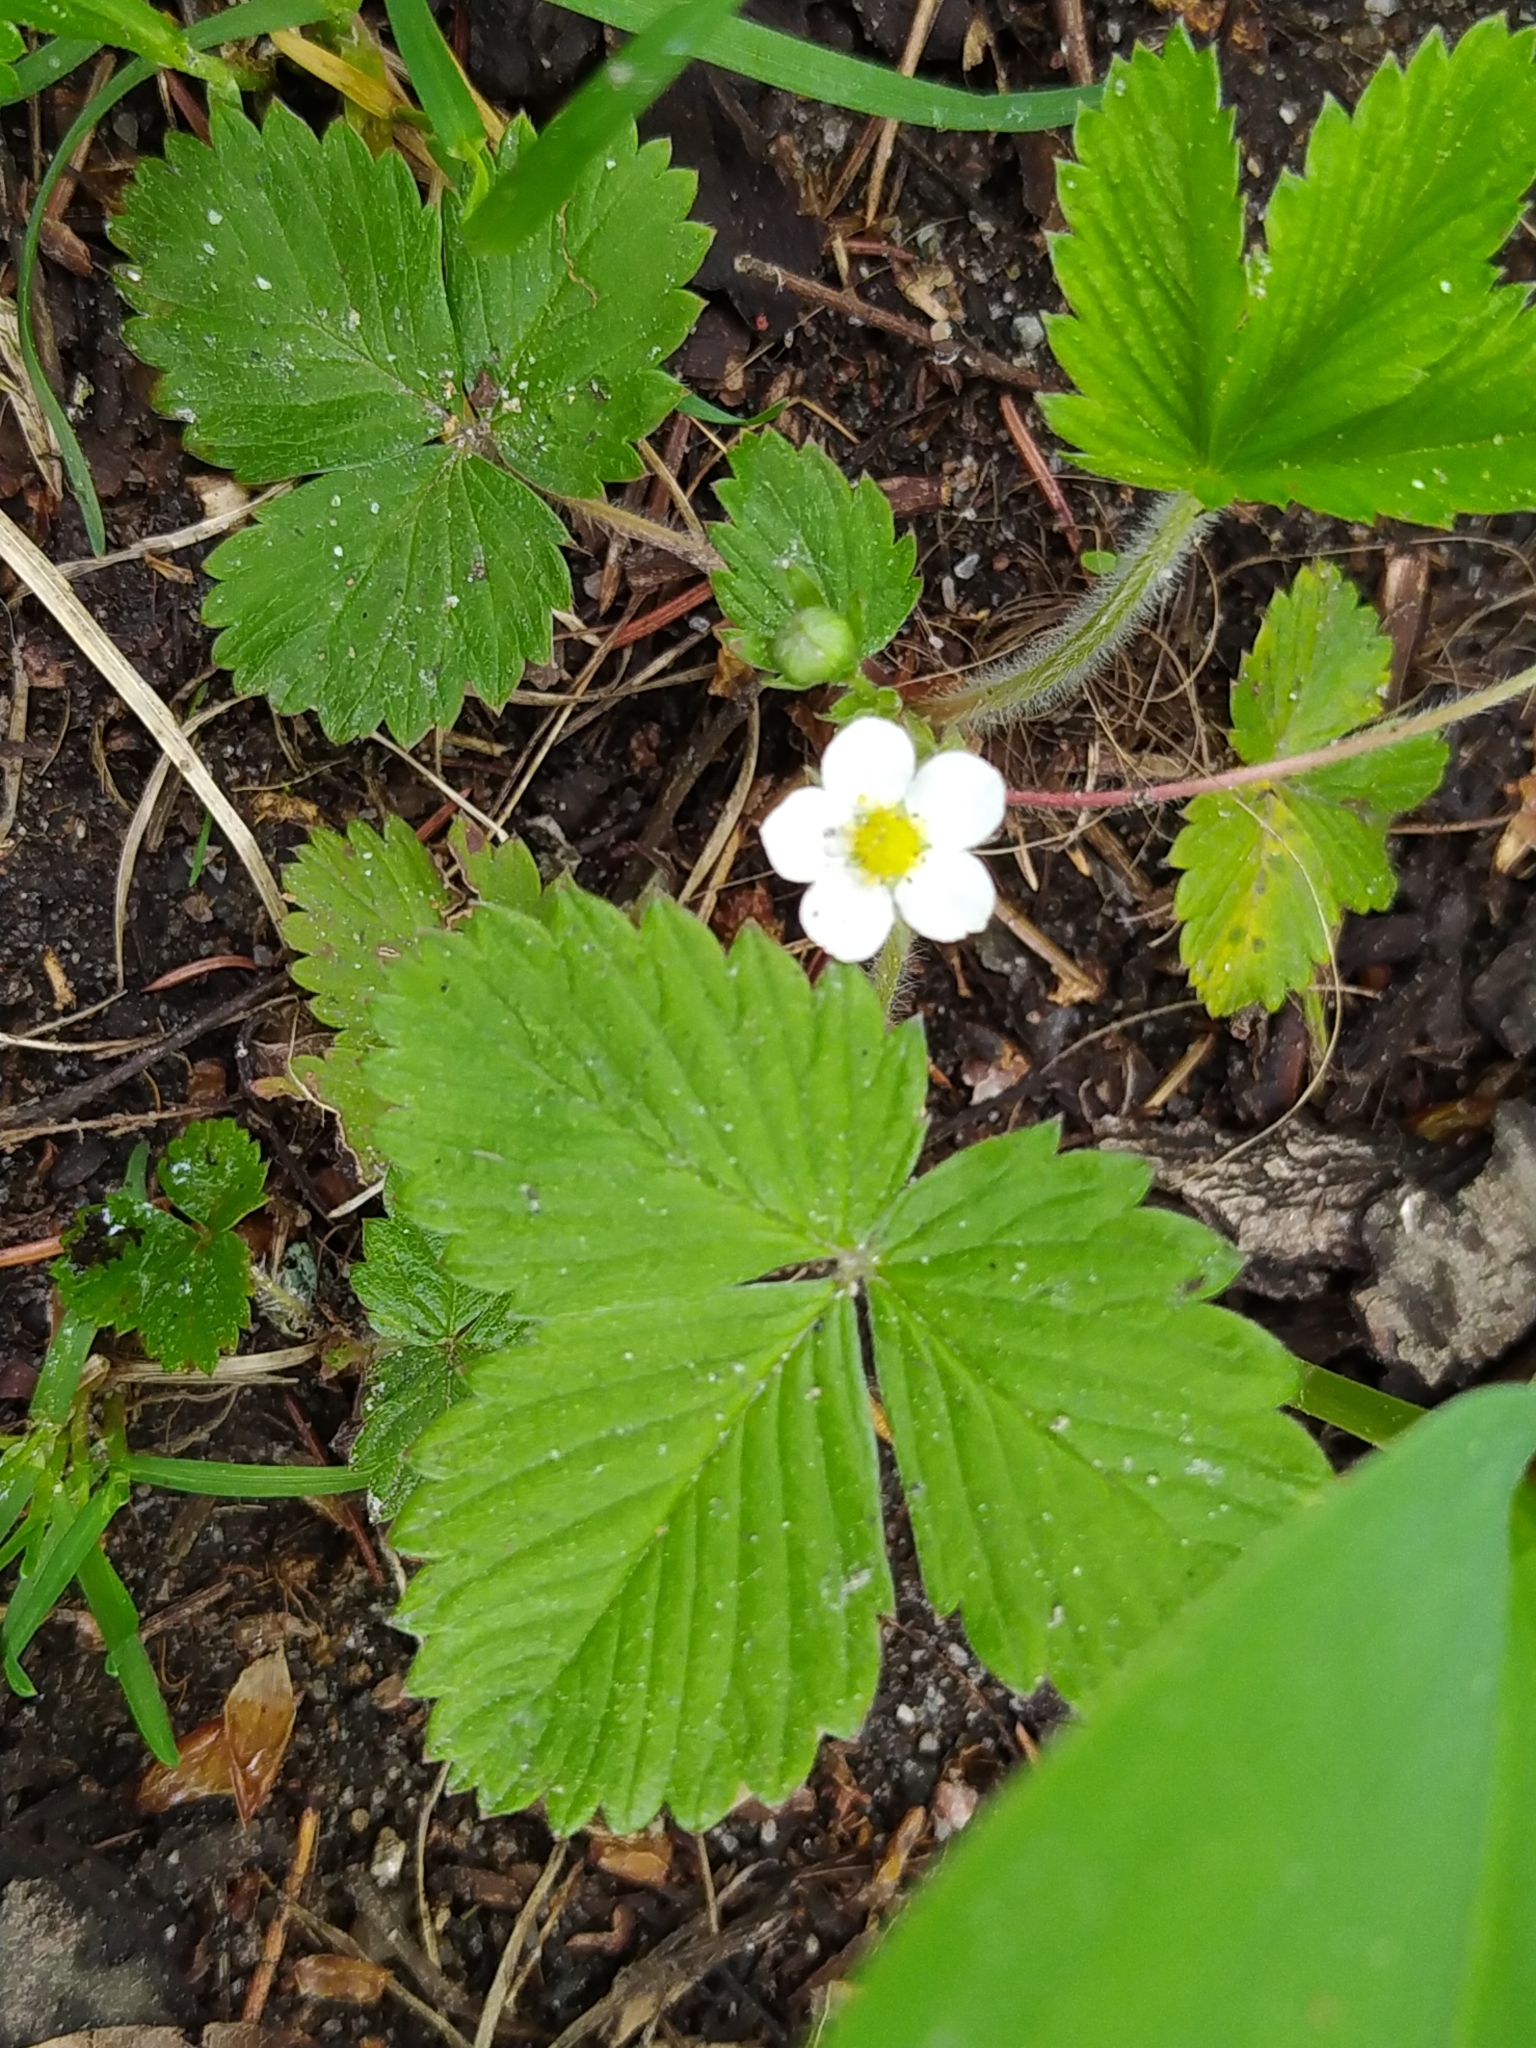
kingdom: Plantae
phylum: Tracheophyta
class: Magnoliopsida
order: Rosales
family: Rosaceae
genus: Fragaria
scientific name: Fragaria vesca
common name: Wild strawberry
